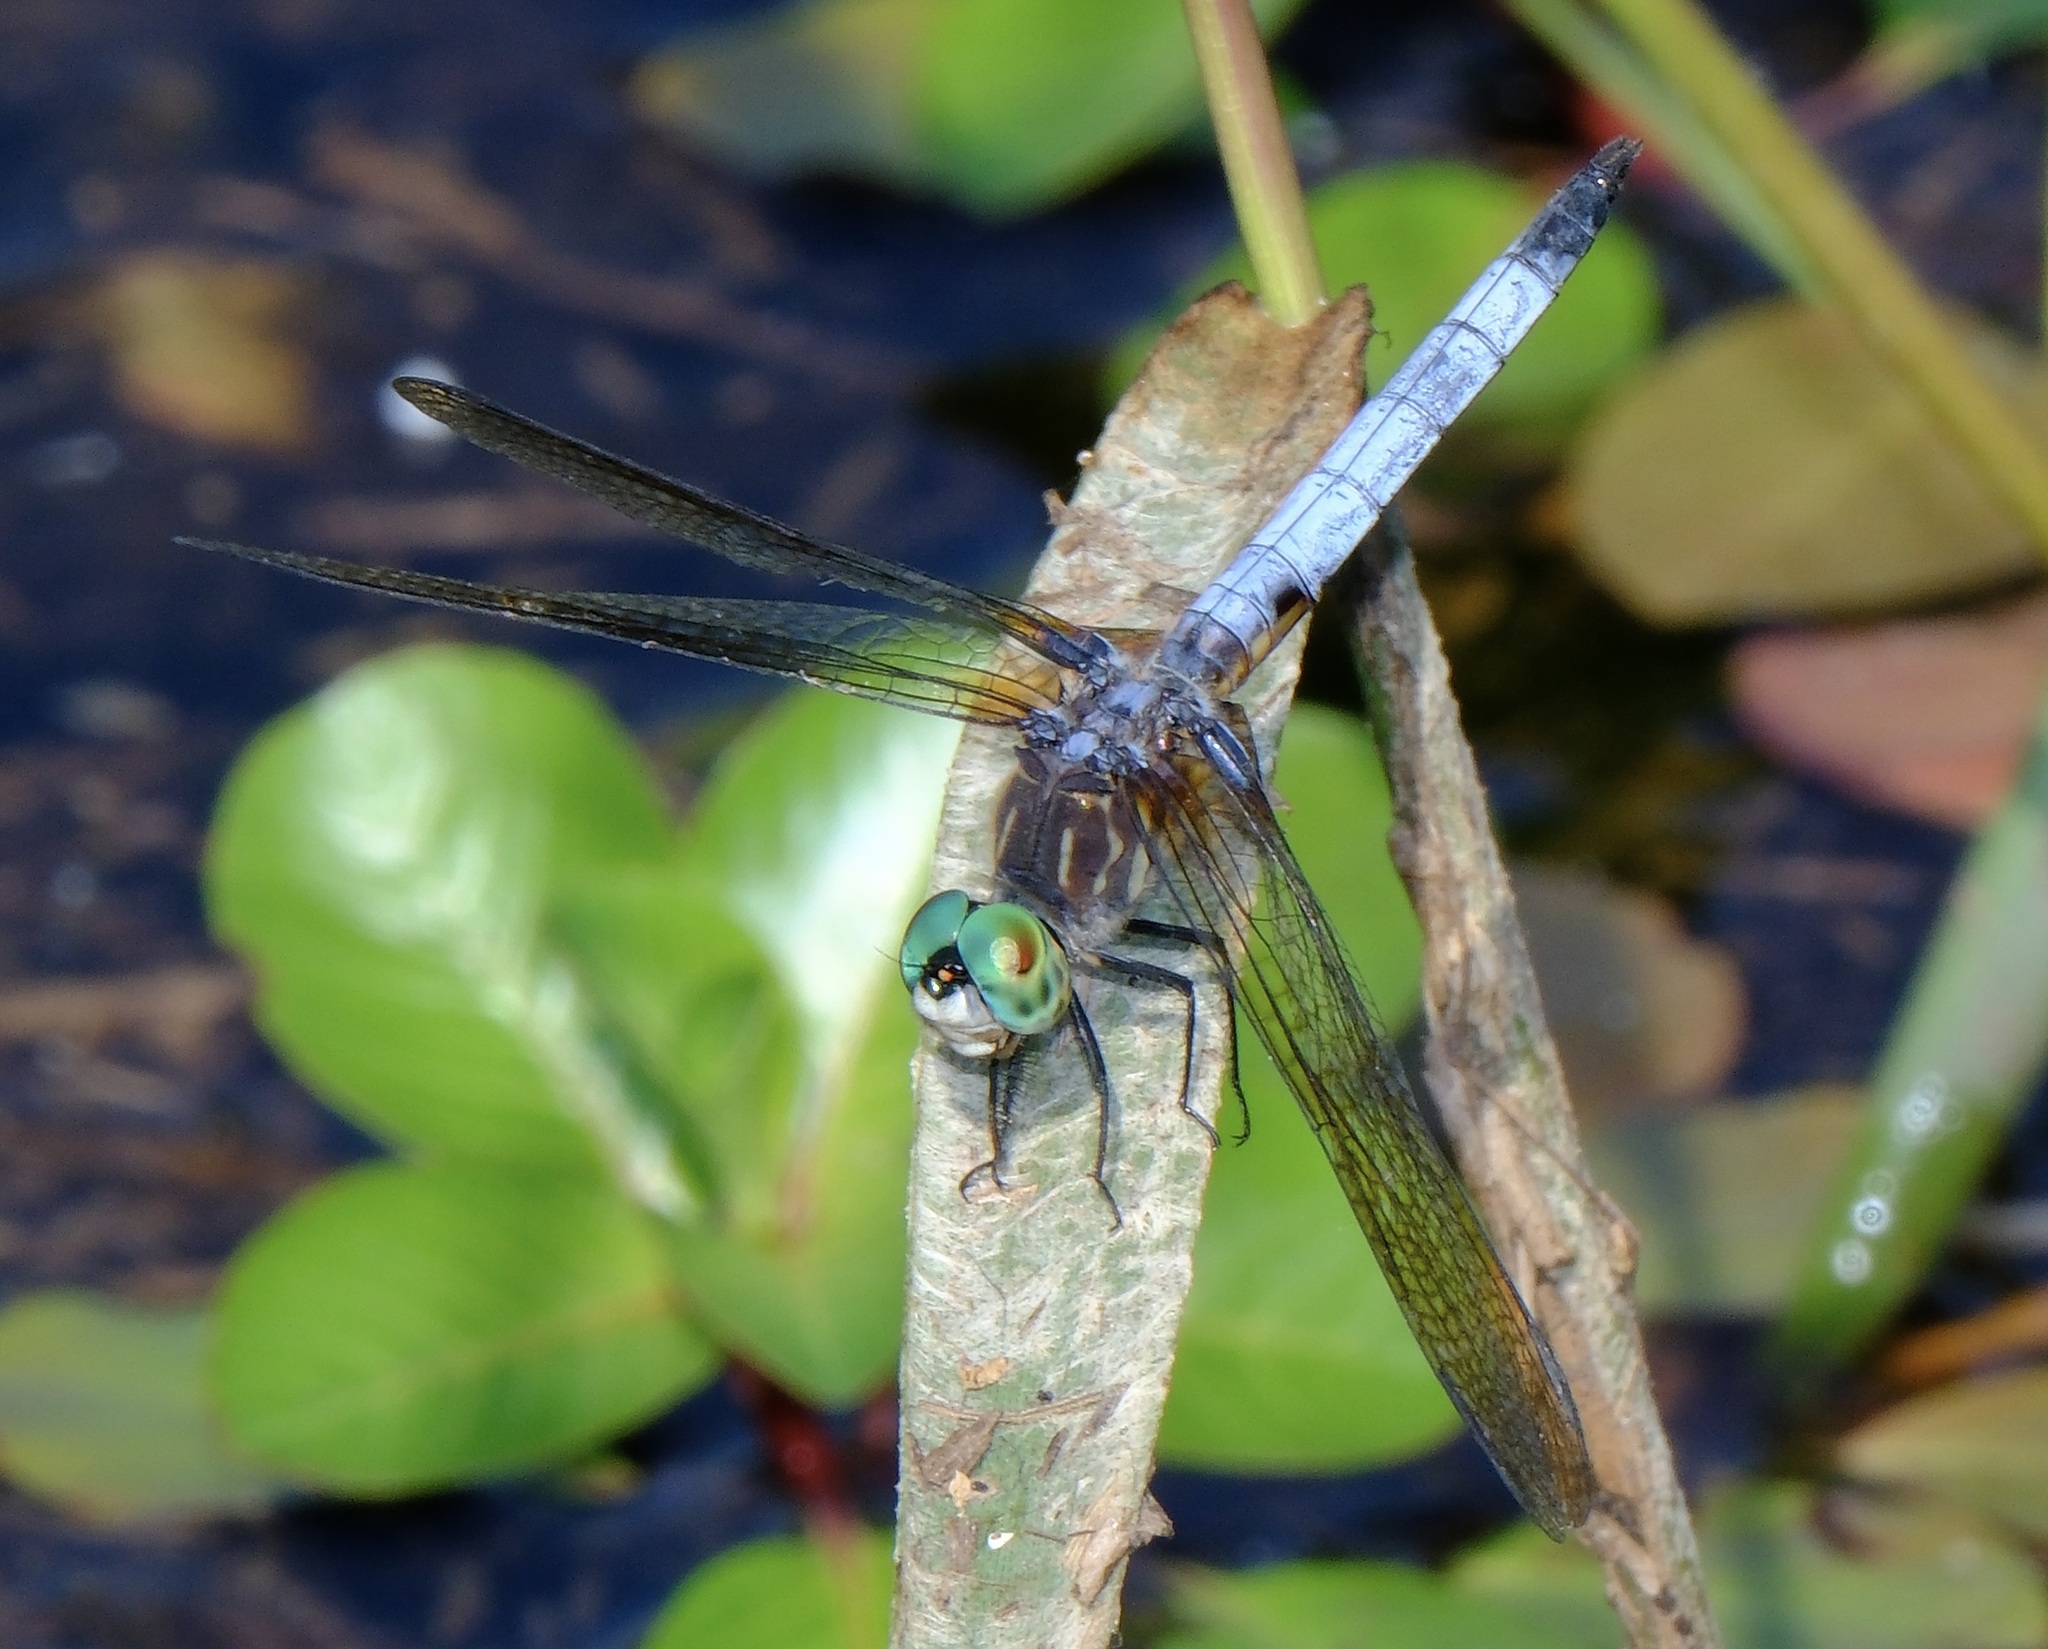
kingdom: Animalia
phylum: Arthropoda
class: Insecta
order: Odonata
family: Libellulidae
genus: Pachydiplax
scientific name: Pachydiplax longipennis
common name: Blue dasher
